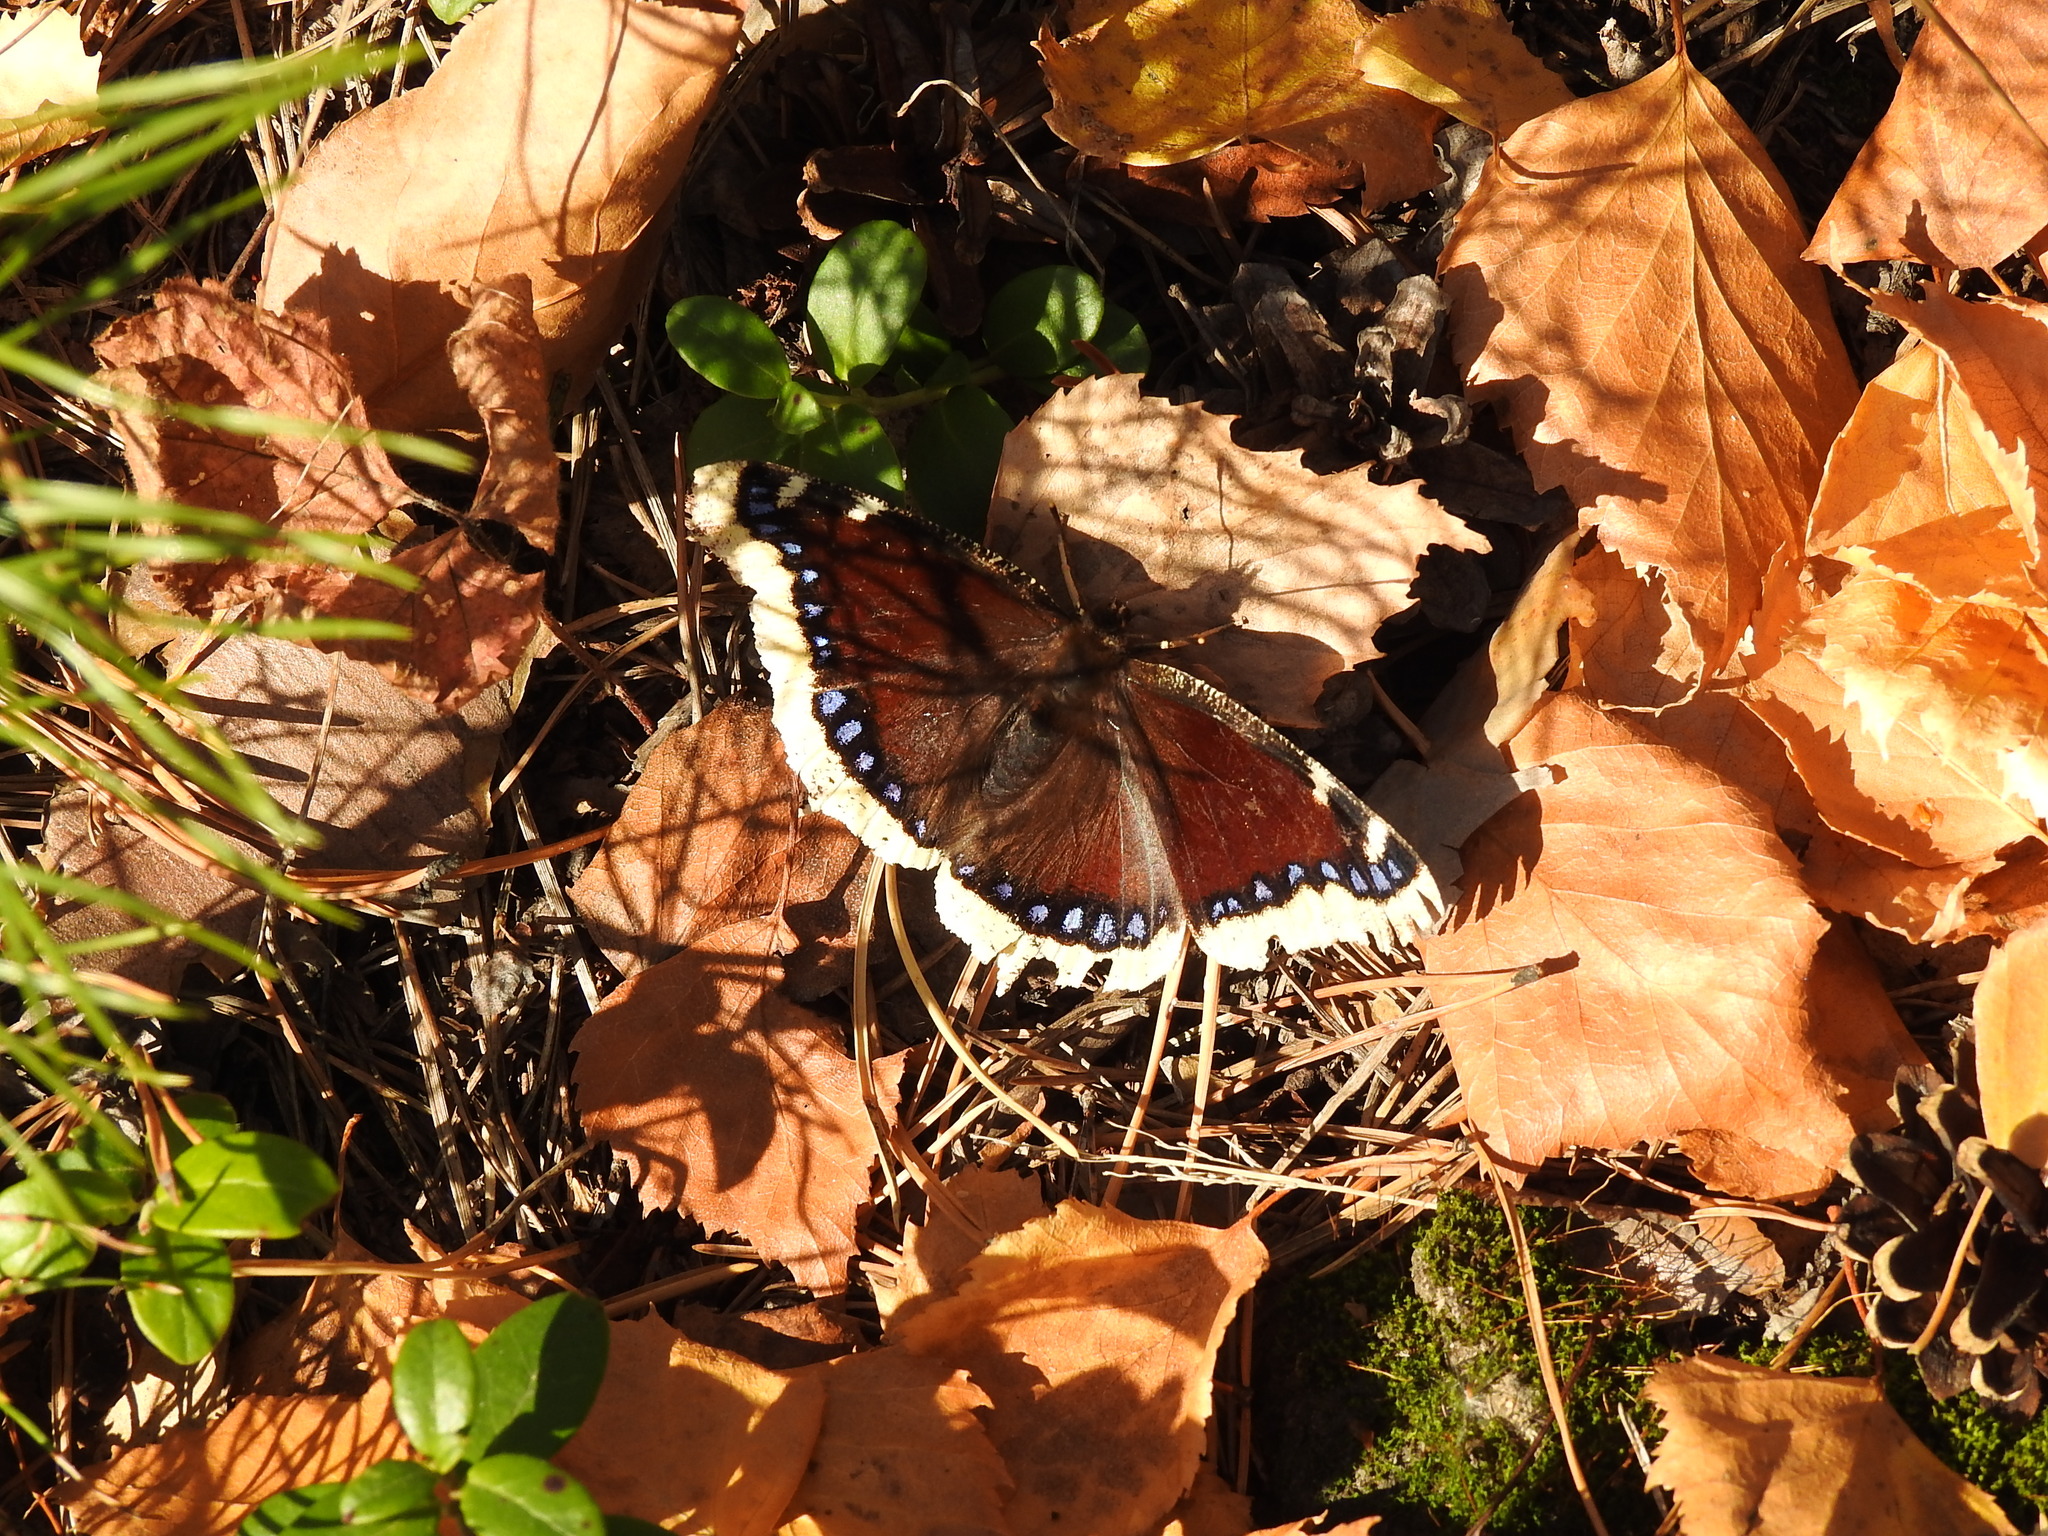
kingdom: Animalia
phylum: Arthropoda
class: Insecta
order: Lepidoptera
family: Nymphalidae
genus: Nymphalis
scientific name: Nymphalis antiopa
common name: Camberwell beauty
